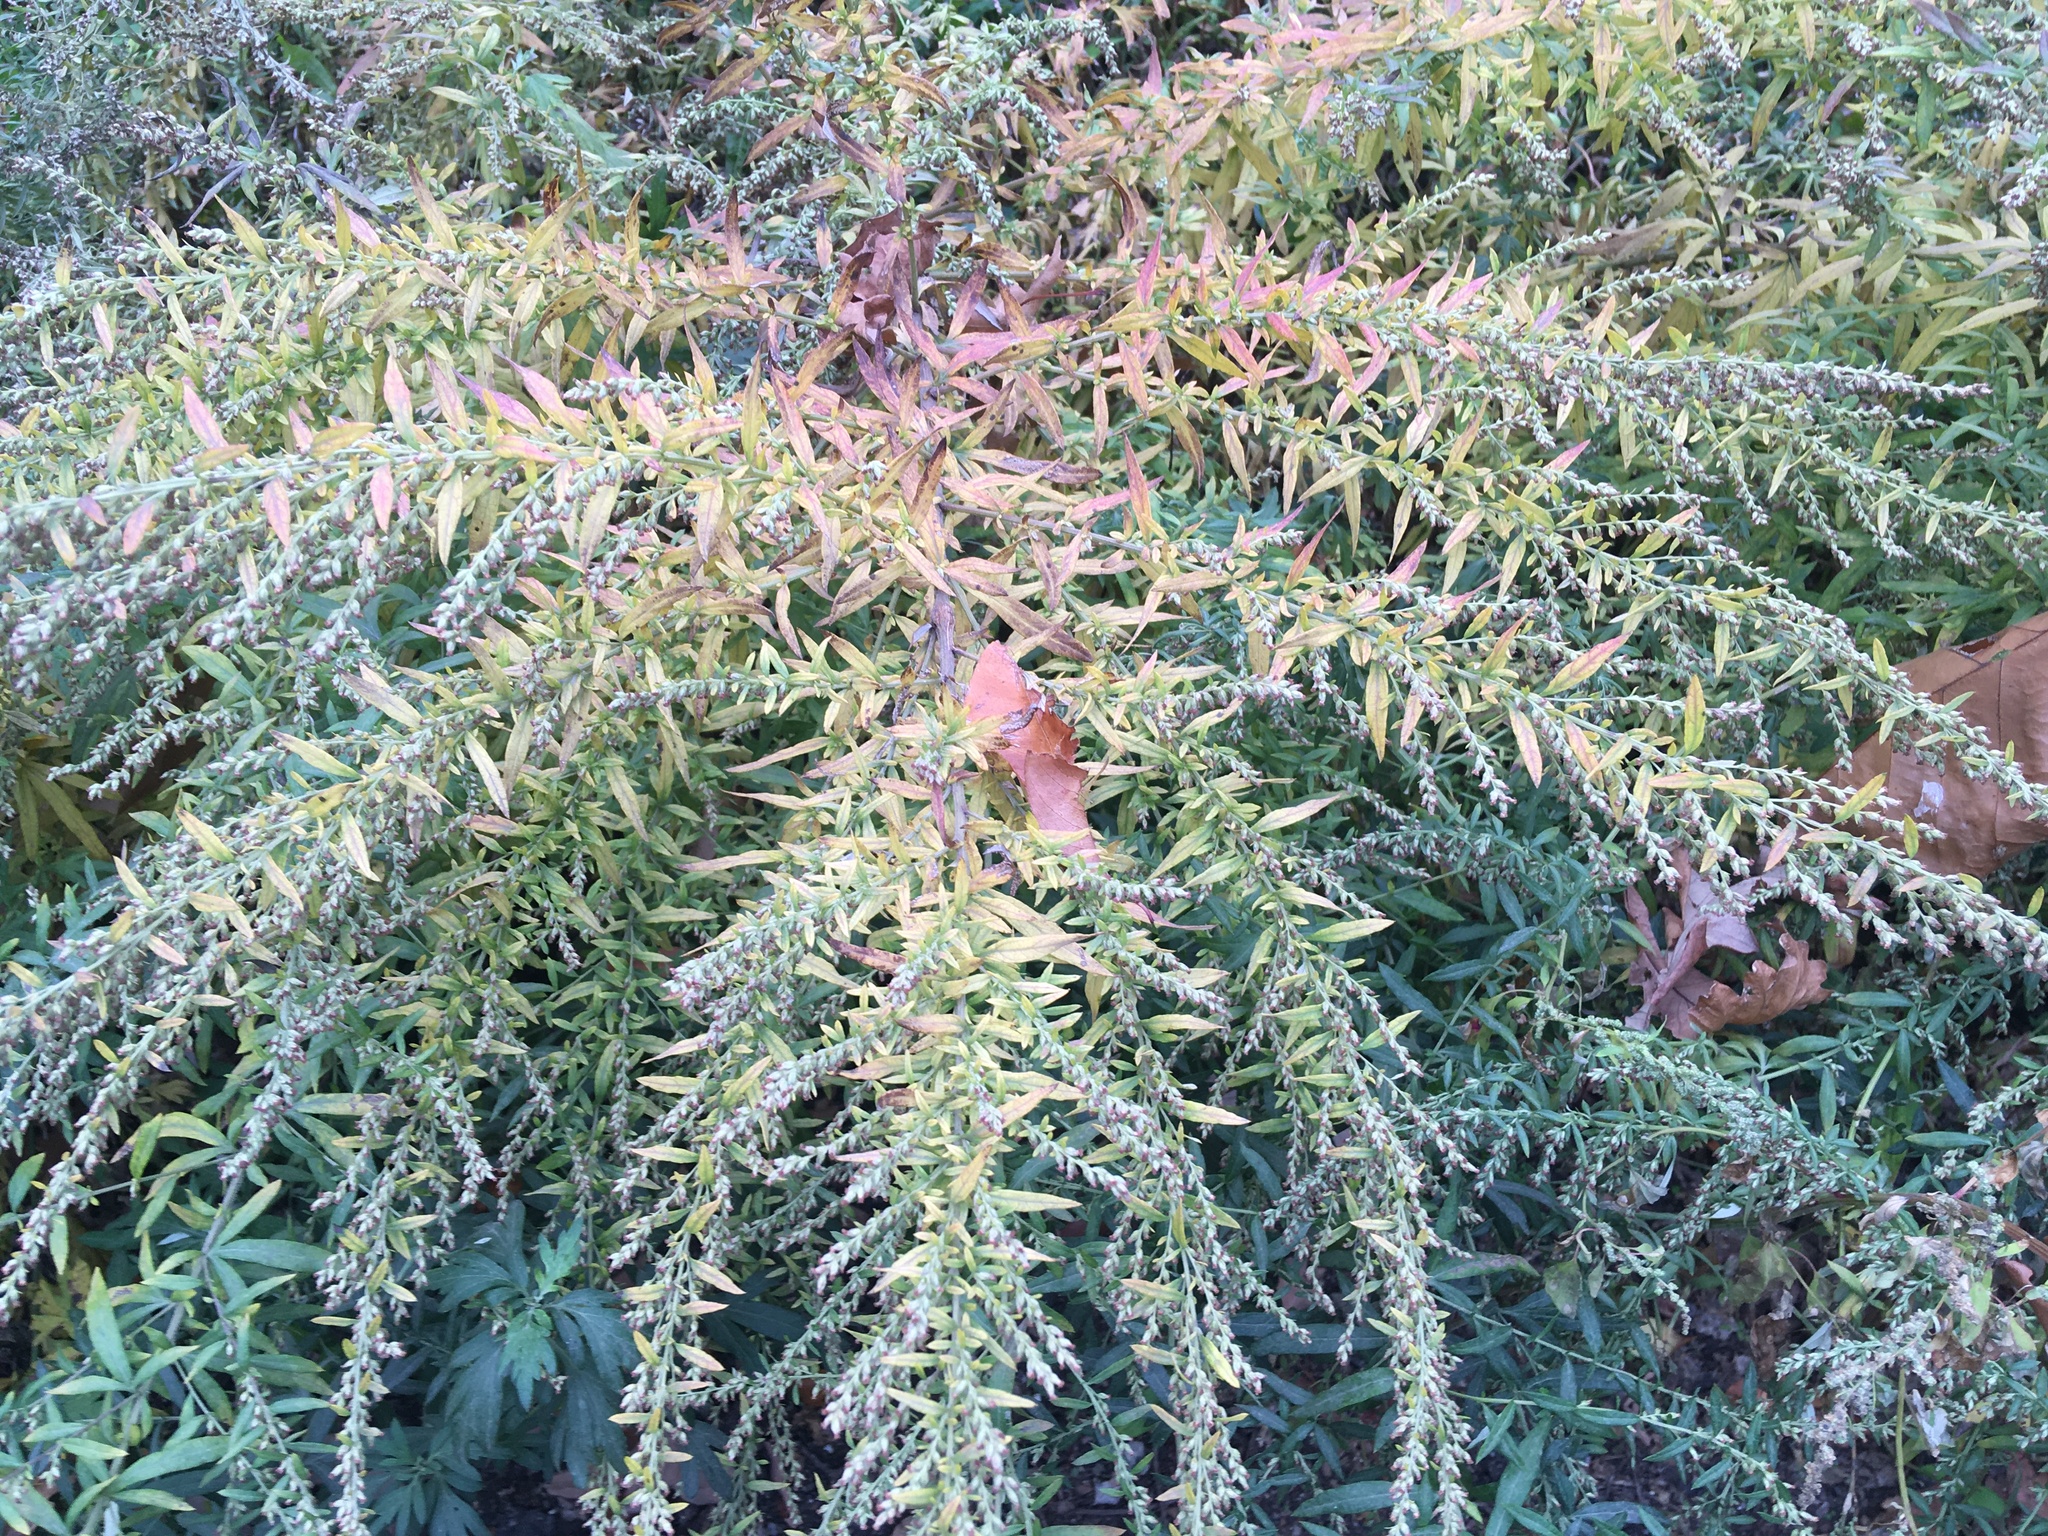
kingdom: Plantae
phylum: Tracheophyta
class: Magnoliopsida
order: Asterales
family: Asteraceae
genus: Artemisia
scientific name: Artemisia vulgaris
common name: Mugwort
